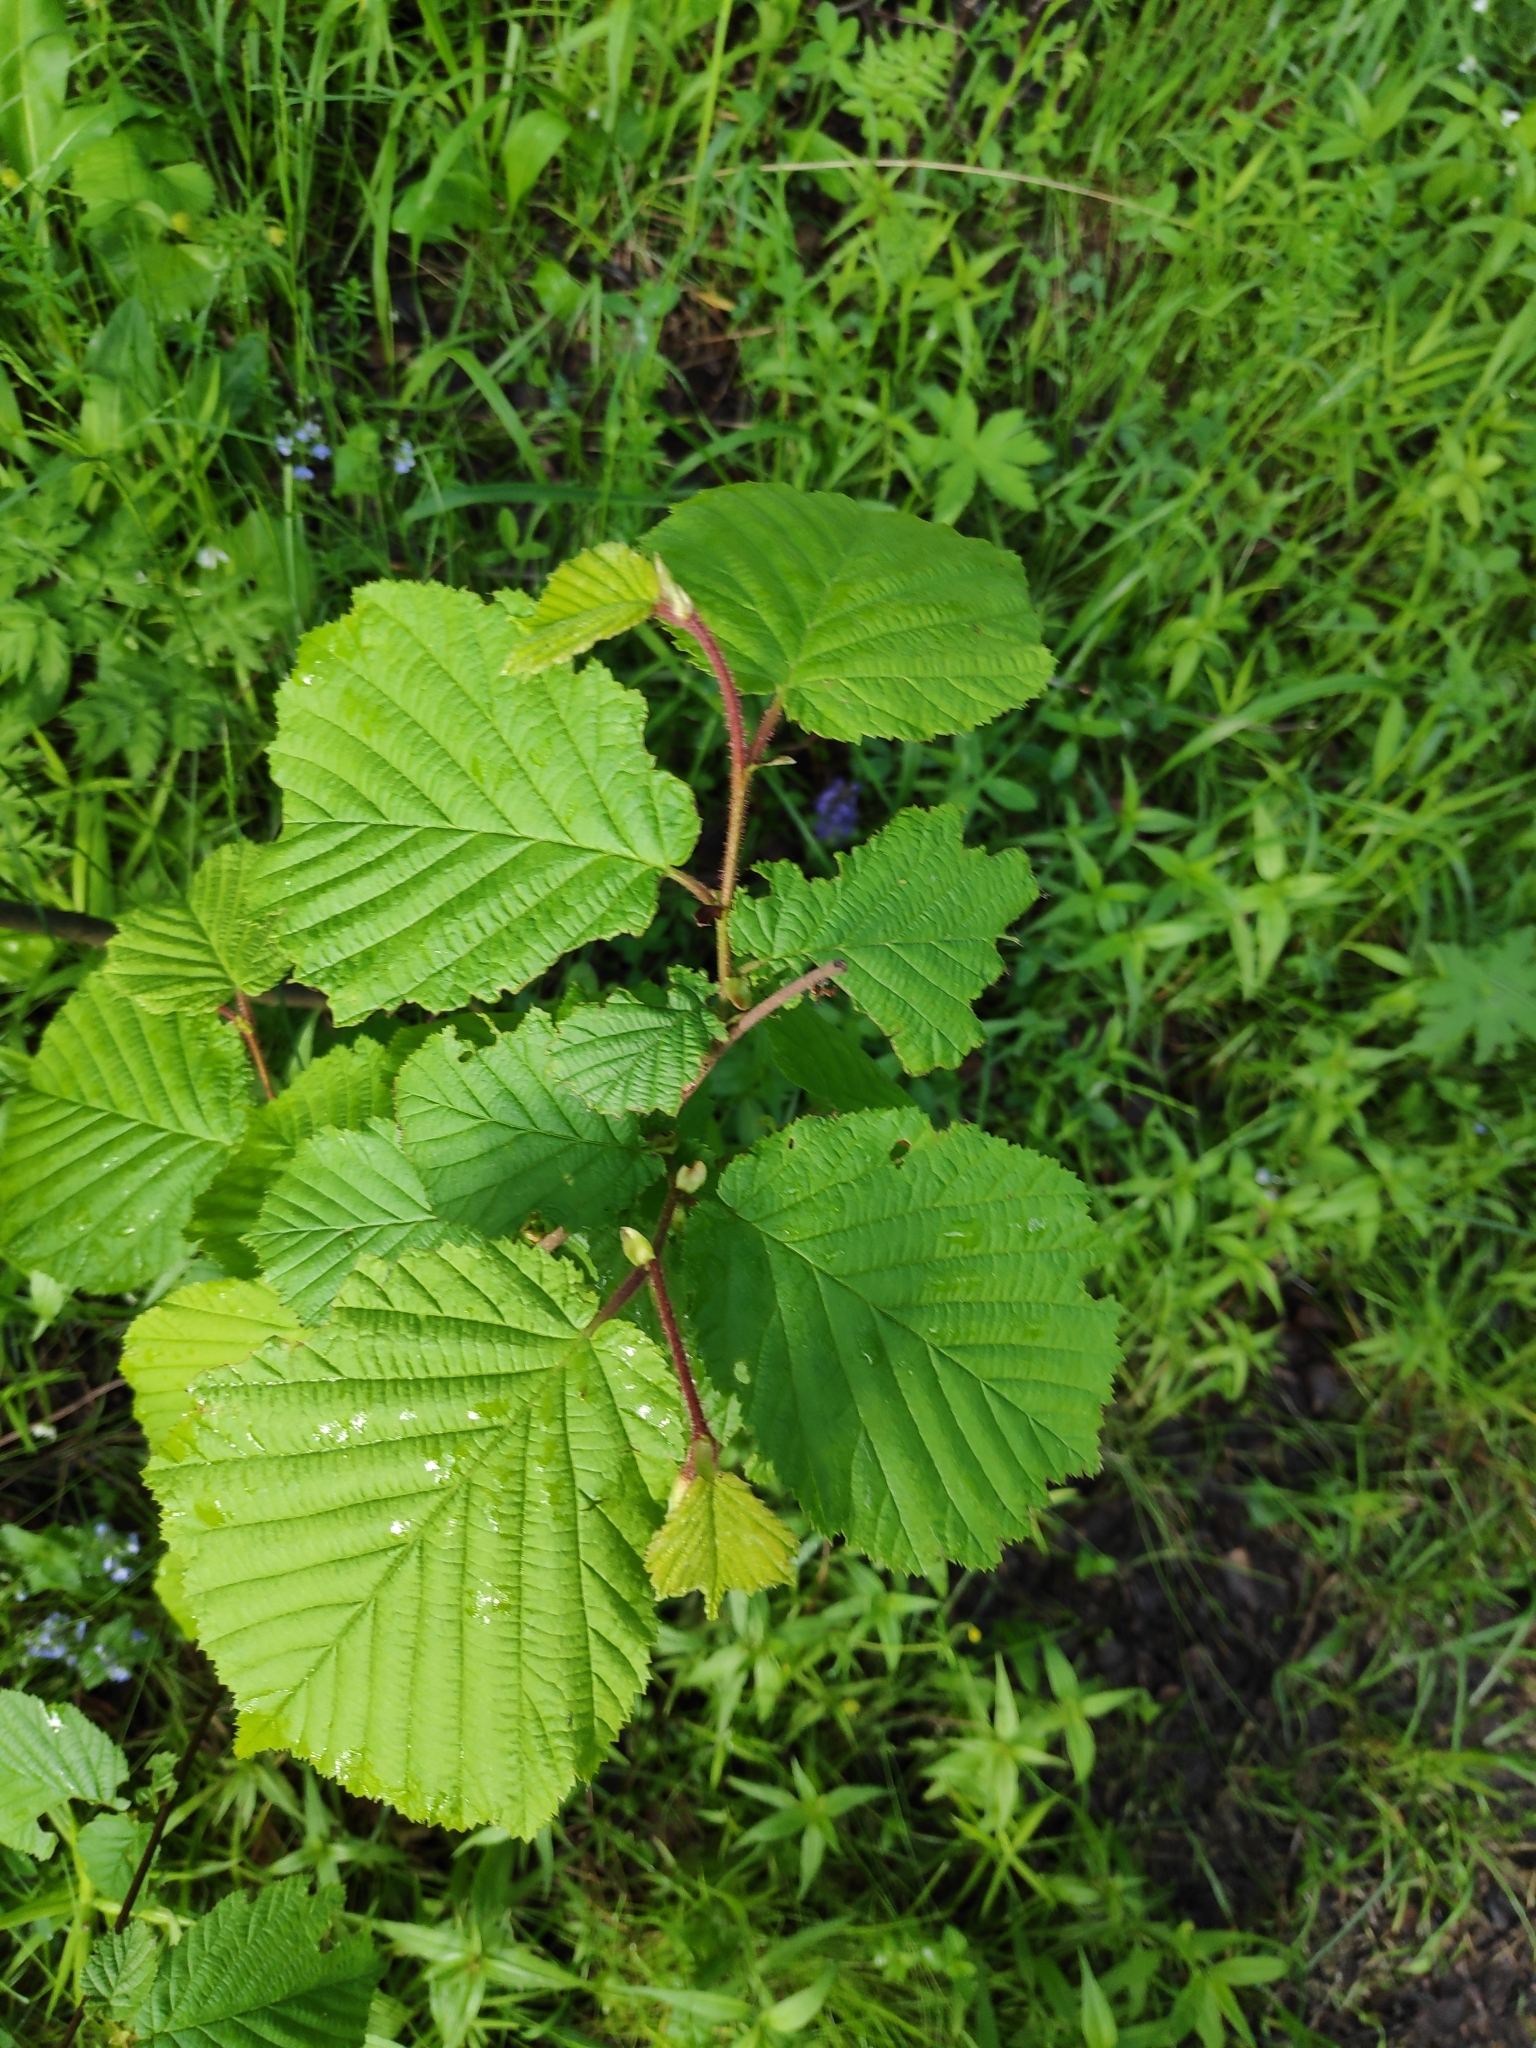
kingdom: Plantae
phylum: Tracheophyta
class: Magnoliopsida
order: Fagales
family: Betulaceae
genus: Corylus
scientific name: Corylus avellana
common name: European hazel
